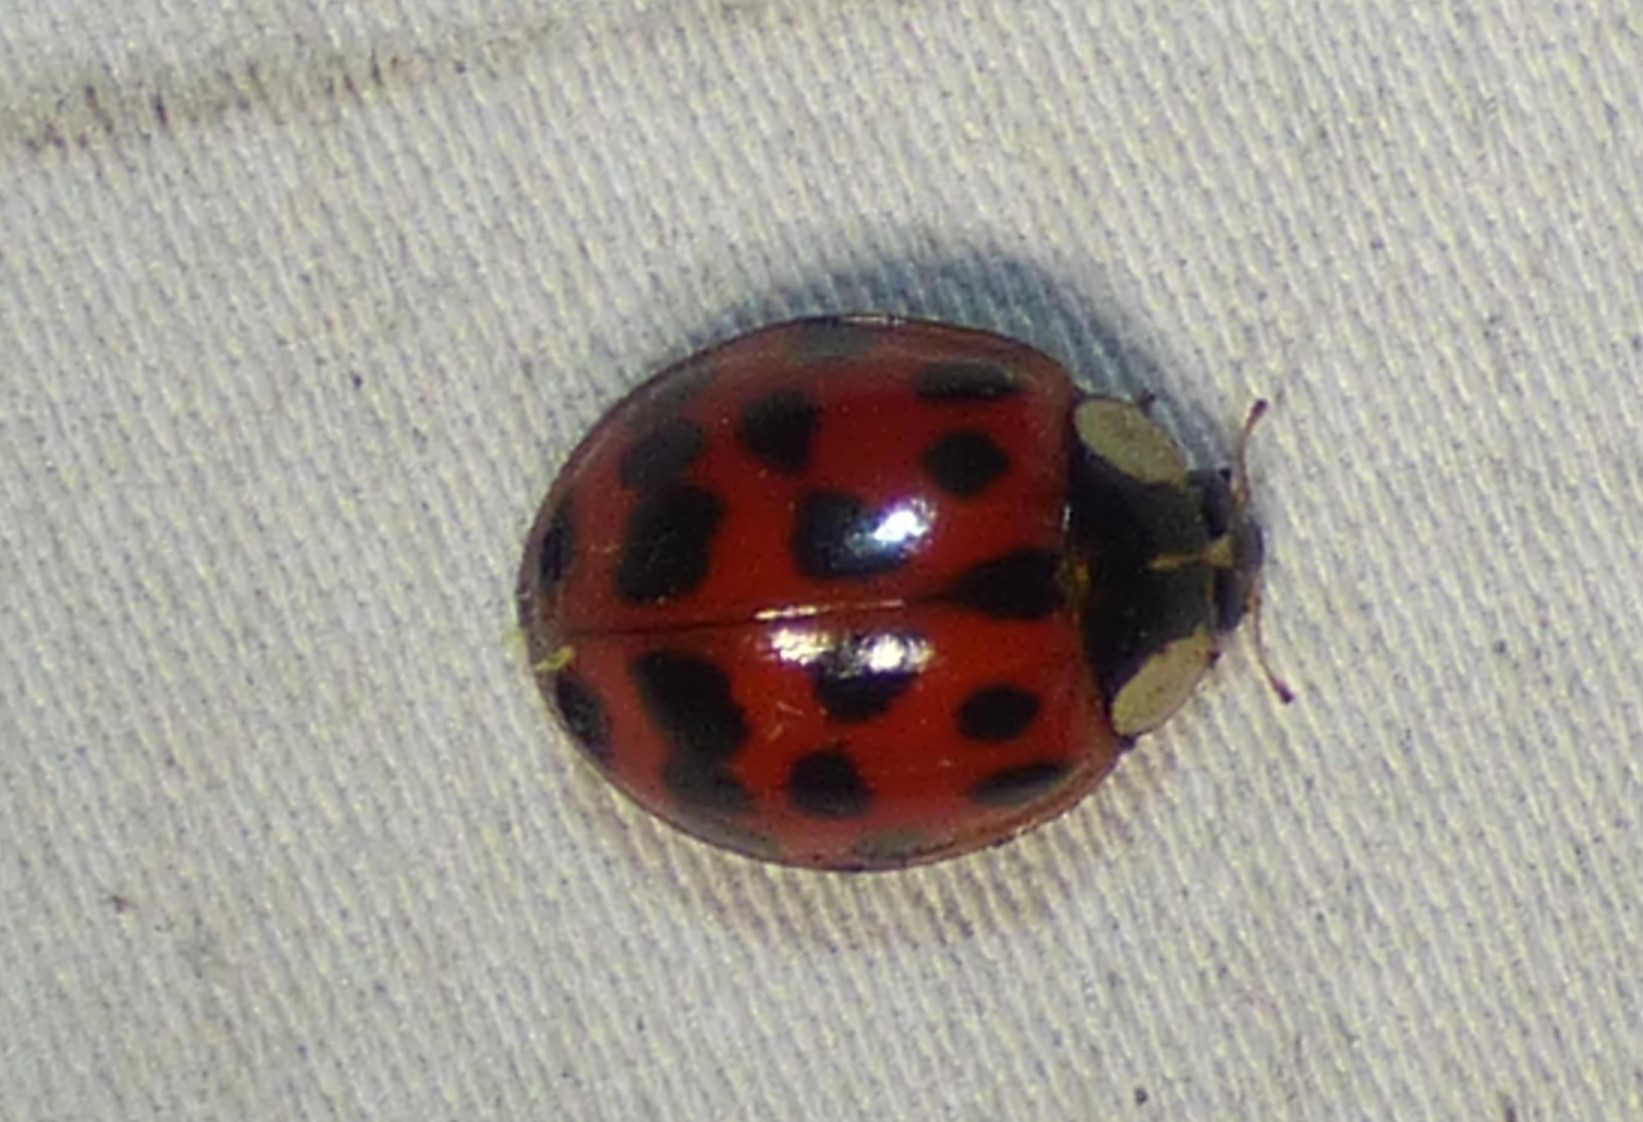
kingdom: Animalia
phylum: Arthropoda
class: Insecta
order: Coleoptera
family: Coccinellidae
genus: Harmonia
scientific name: Harmonia axyridis
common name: Harlequin ladybird
